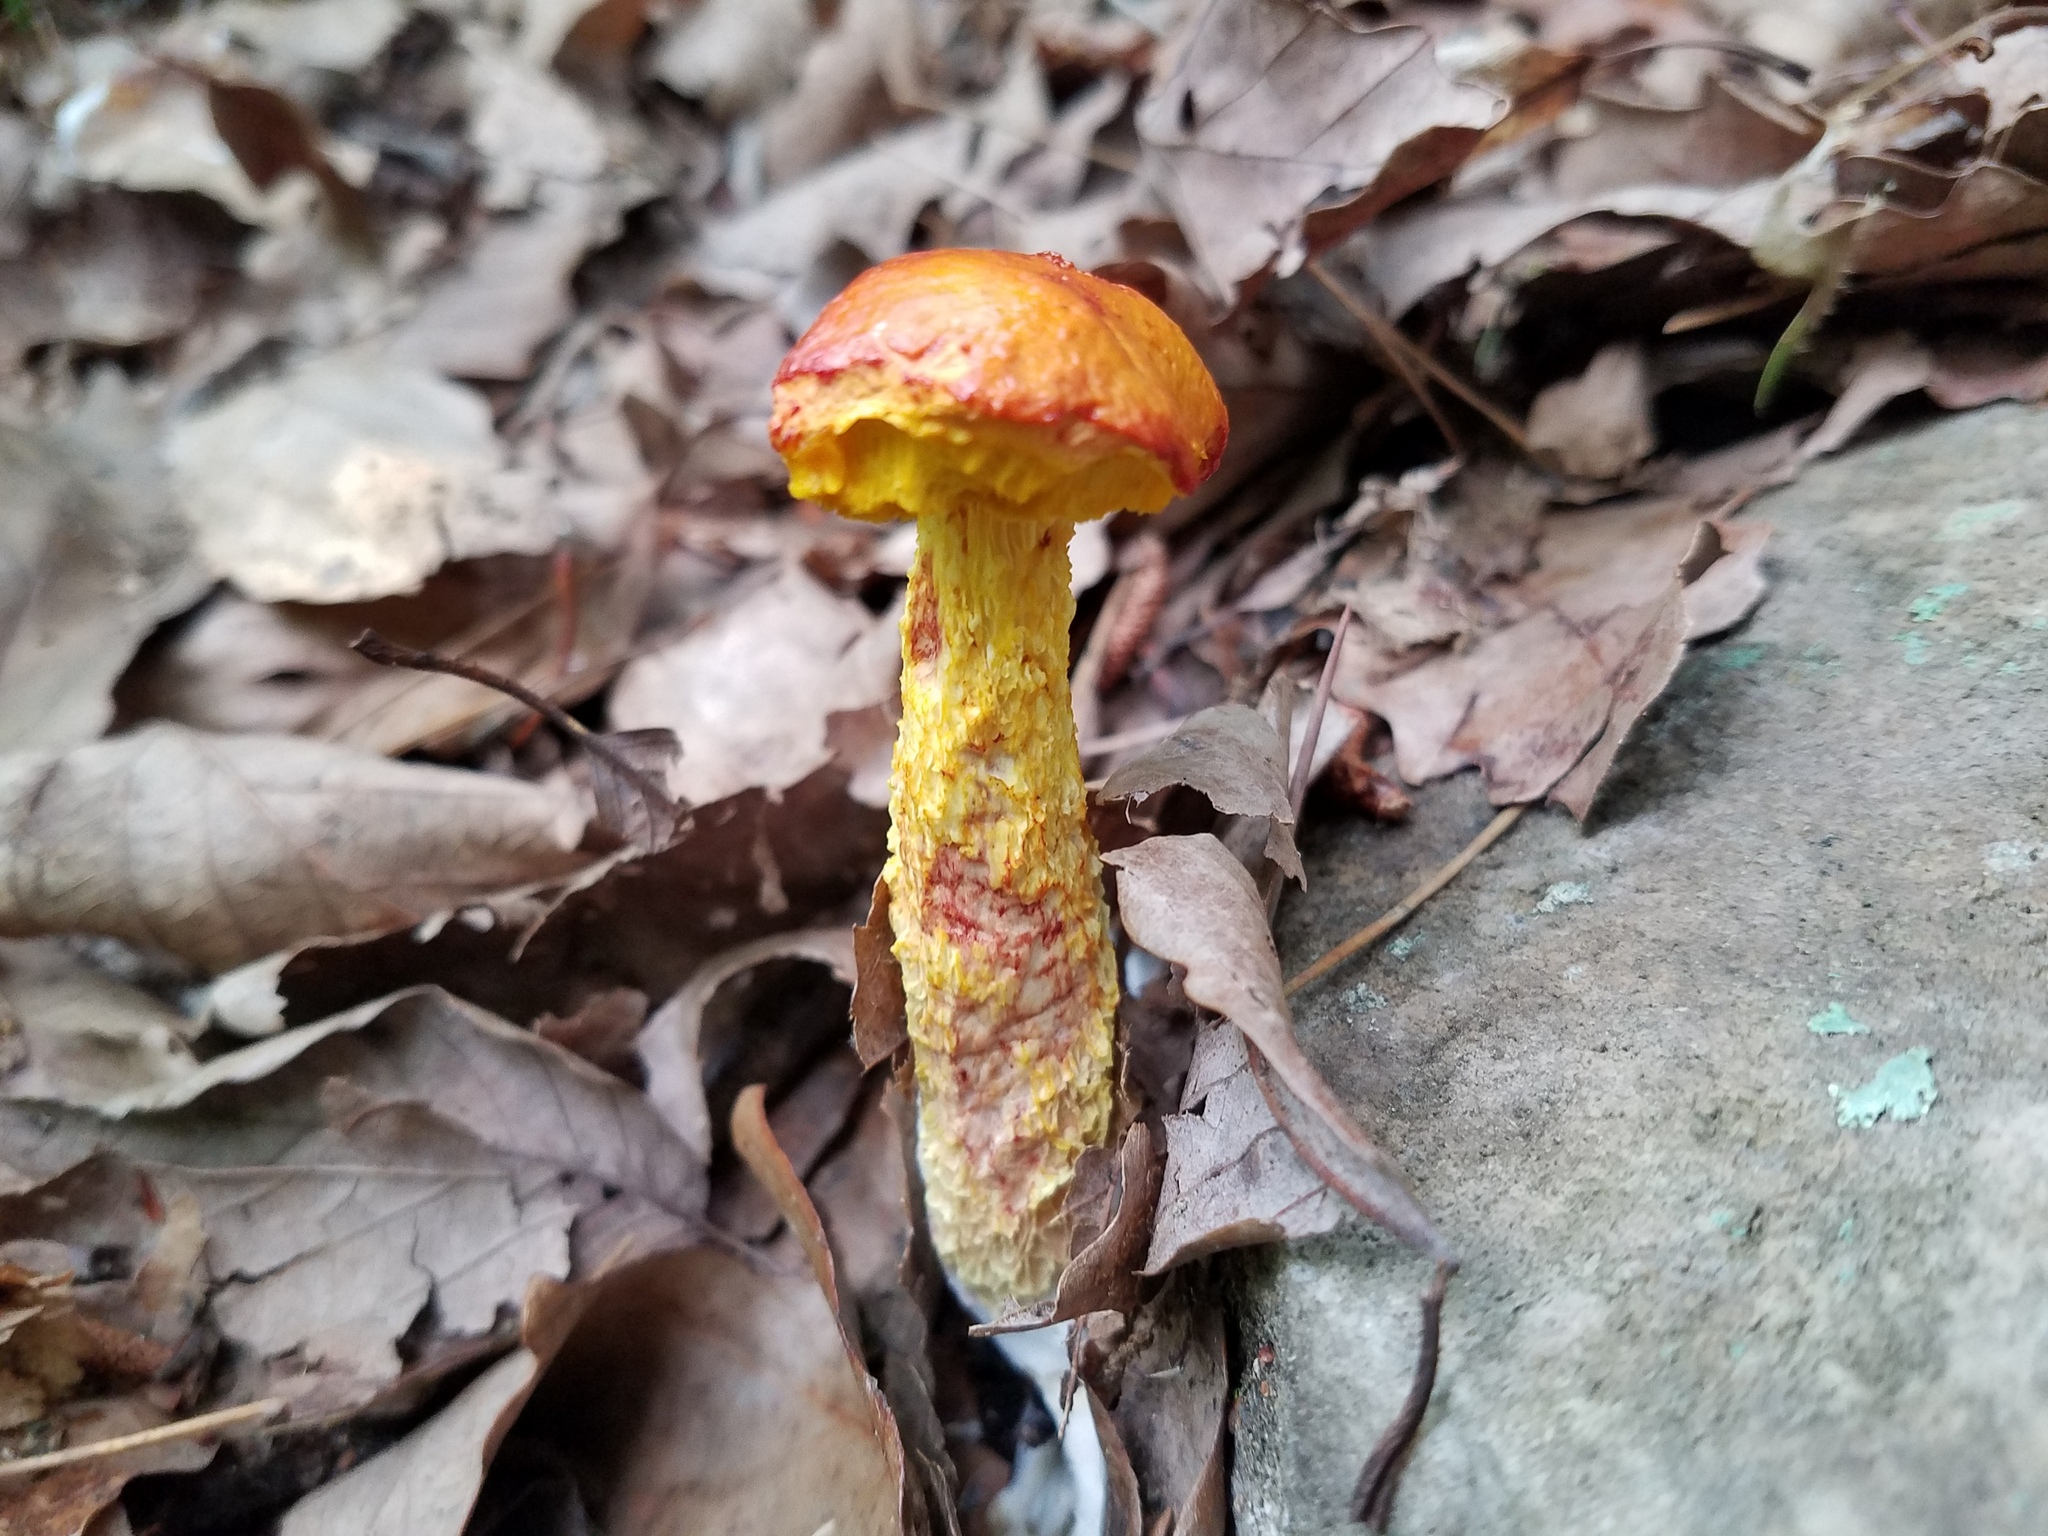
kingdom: Fungi
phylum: Basidiomycota
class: Agaricomycetes
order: Boletales
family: Boletaceae
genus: Aureoboletus
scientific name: Aureoboletus betula
